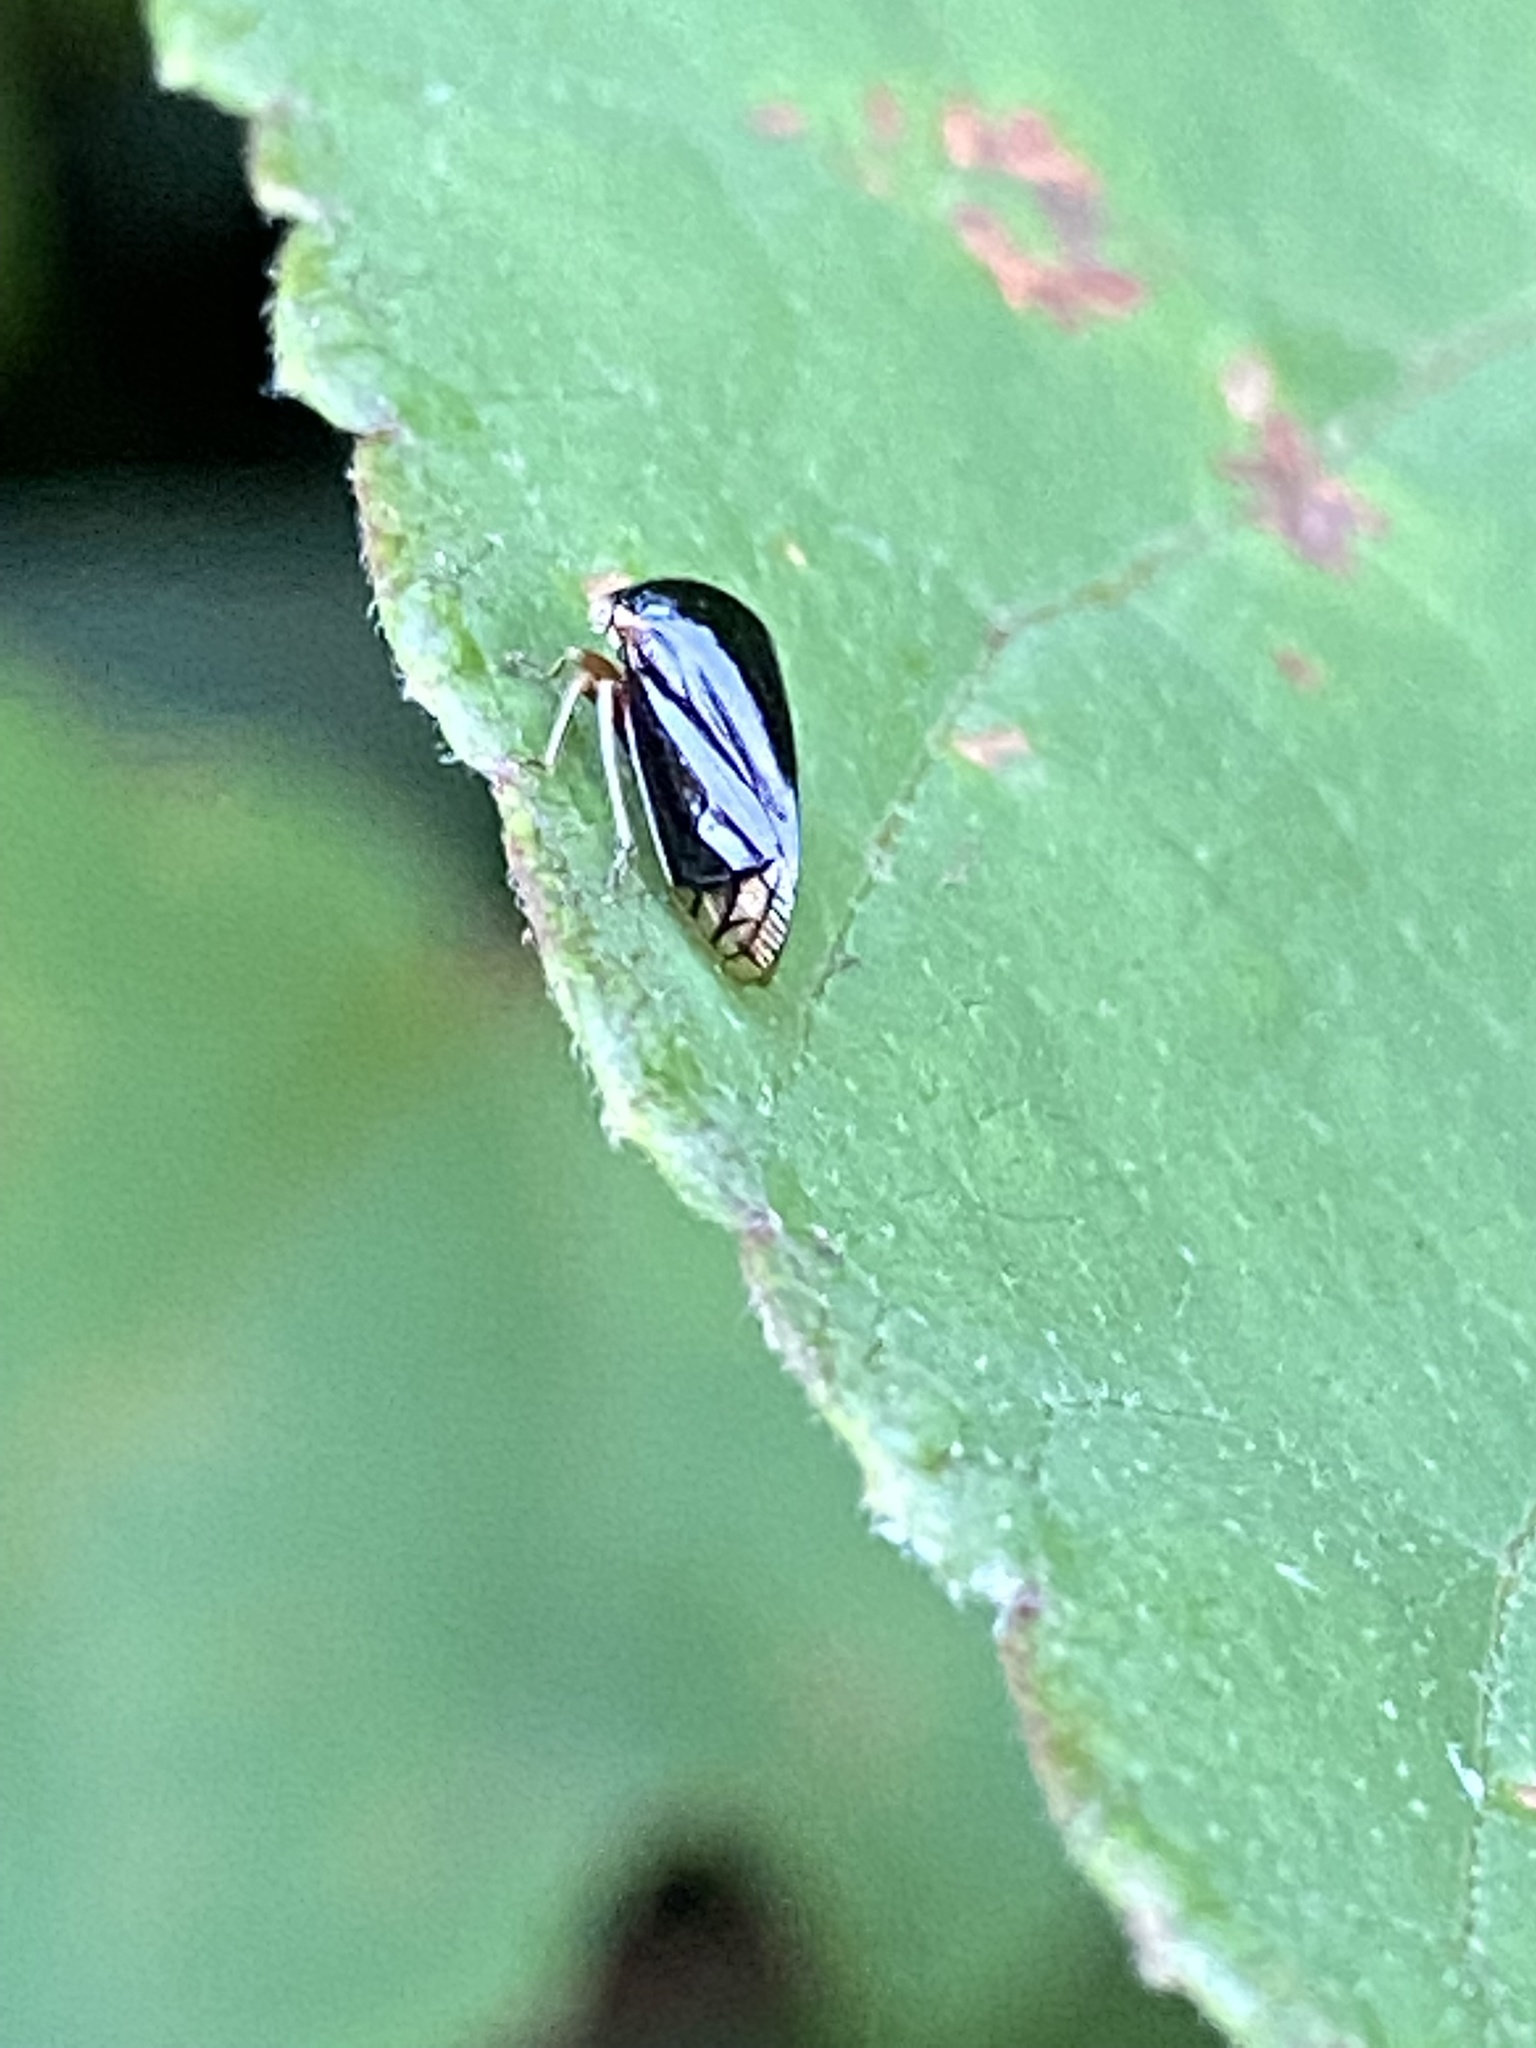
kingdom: Animalia
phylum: Arthropoda
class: Insecta
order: Hemiptera
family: Membracidae
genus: Acutalis
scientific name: Acutalis tartarea
